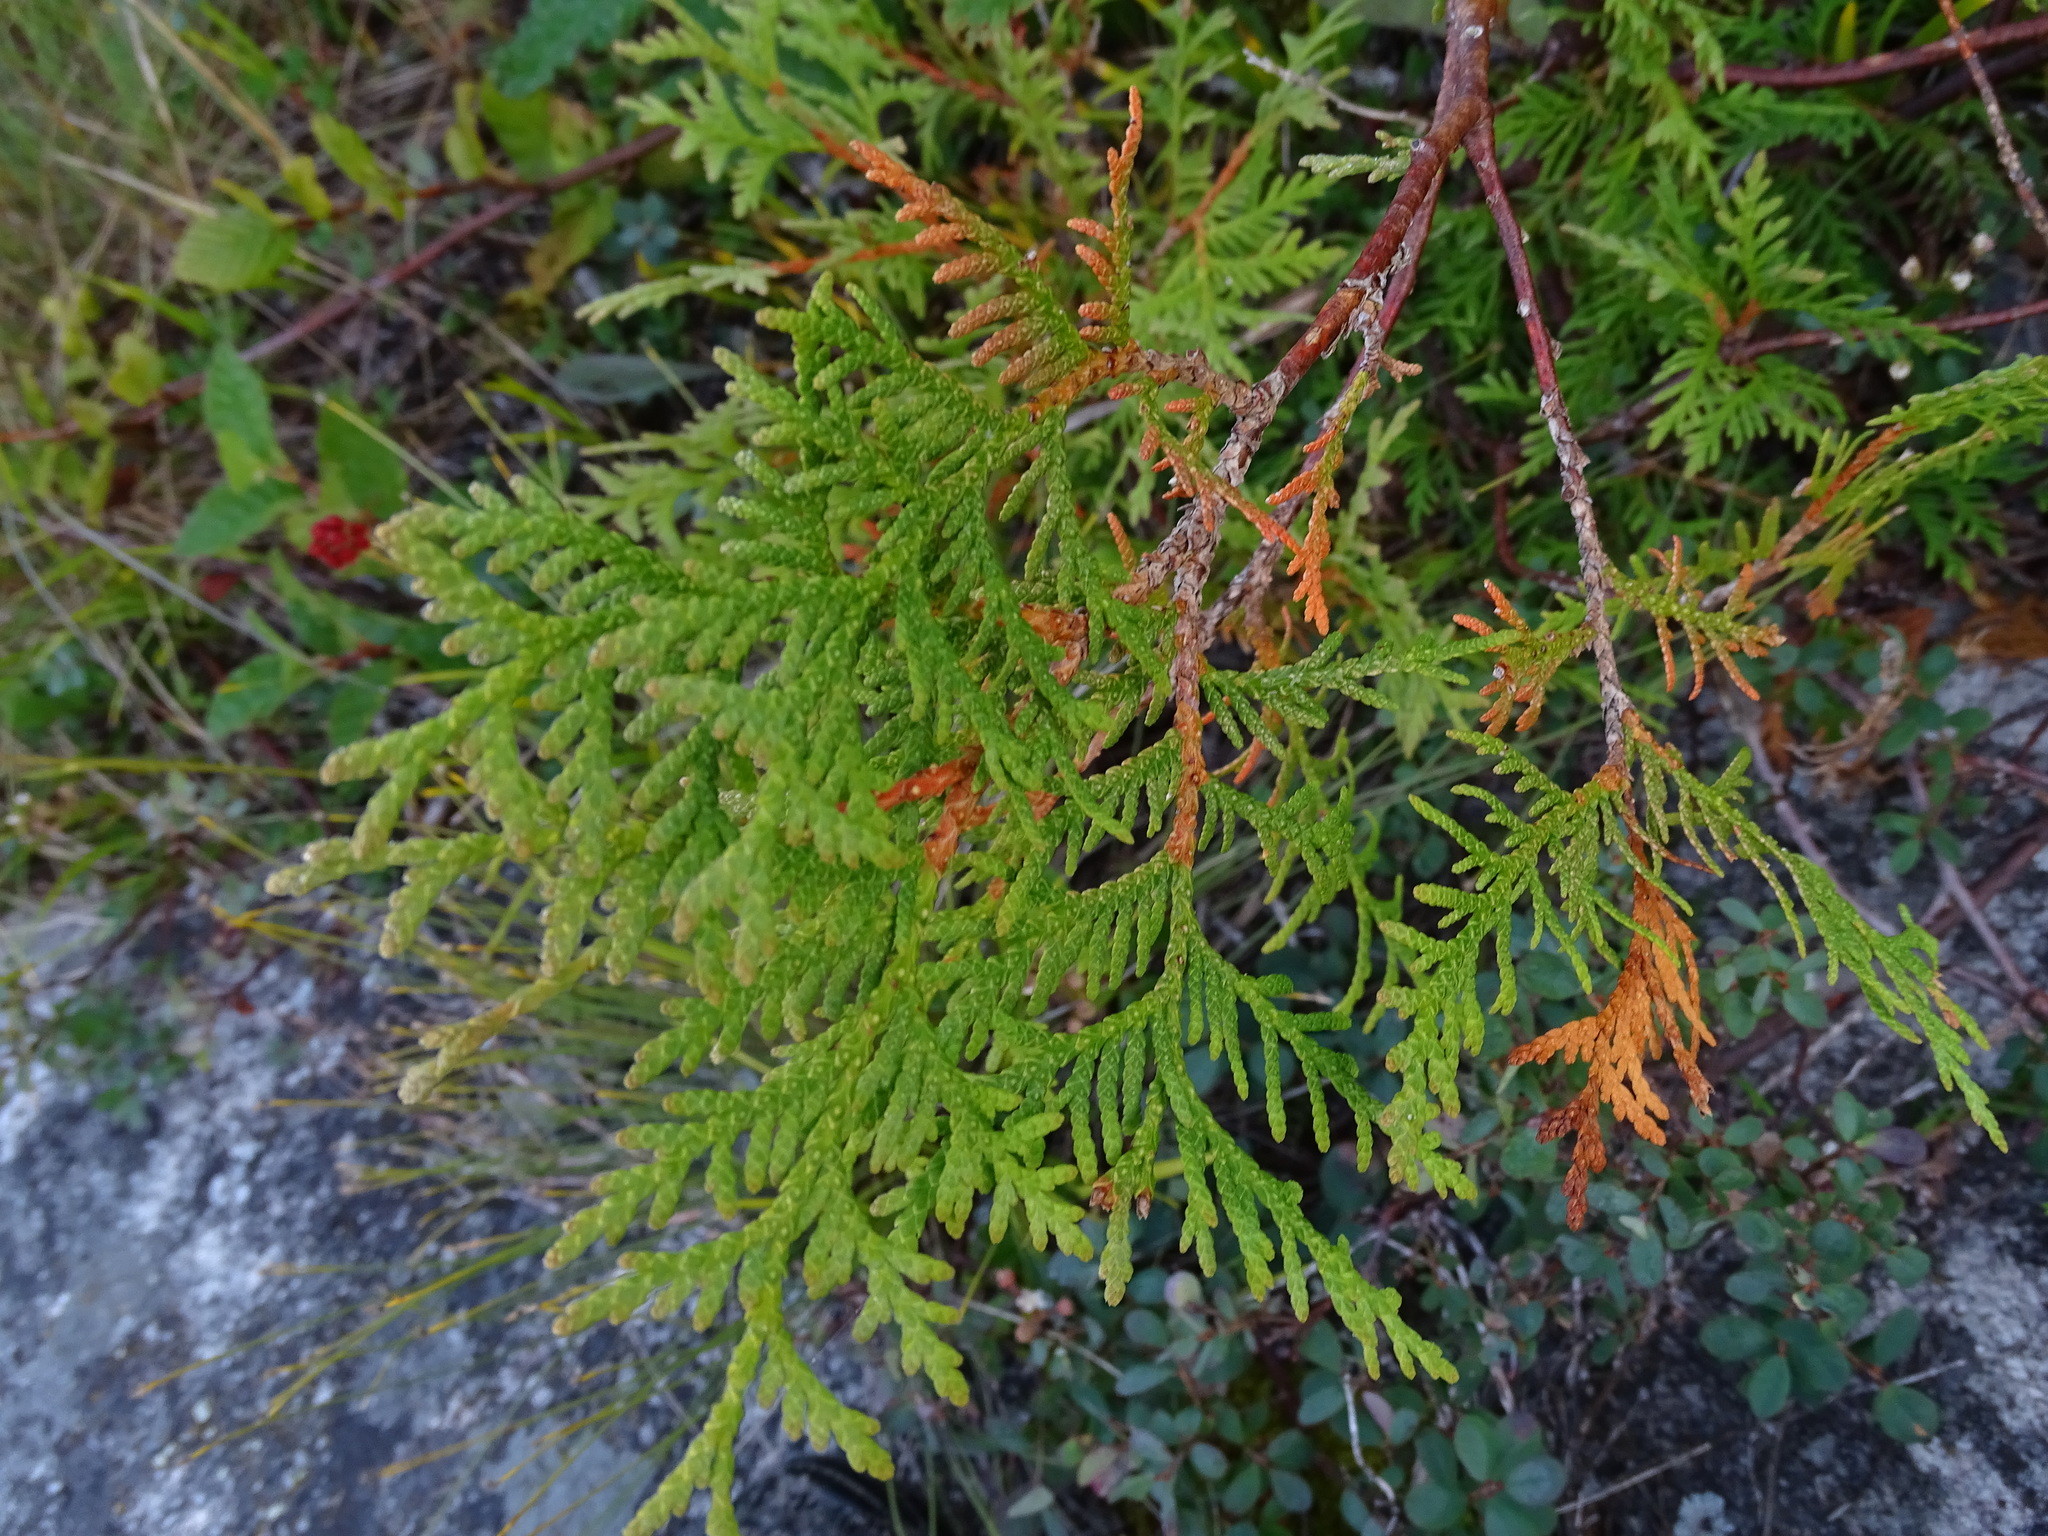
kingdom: Plantae
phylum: Tracheophyta
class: Pinopsida
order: Pinales
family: Cupressaceae
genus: Thuja
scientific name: Thuja occidentalis
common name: Northern white-cedar
